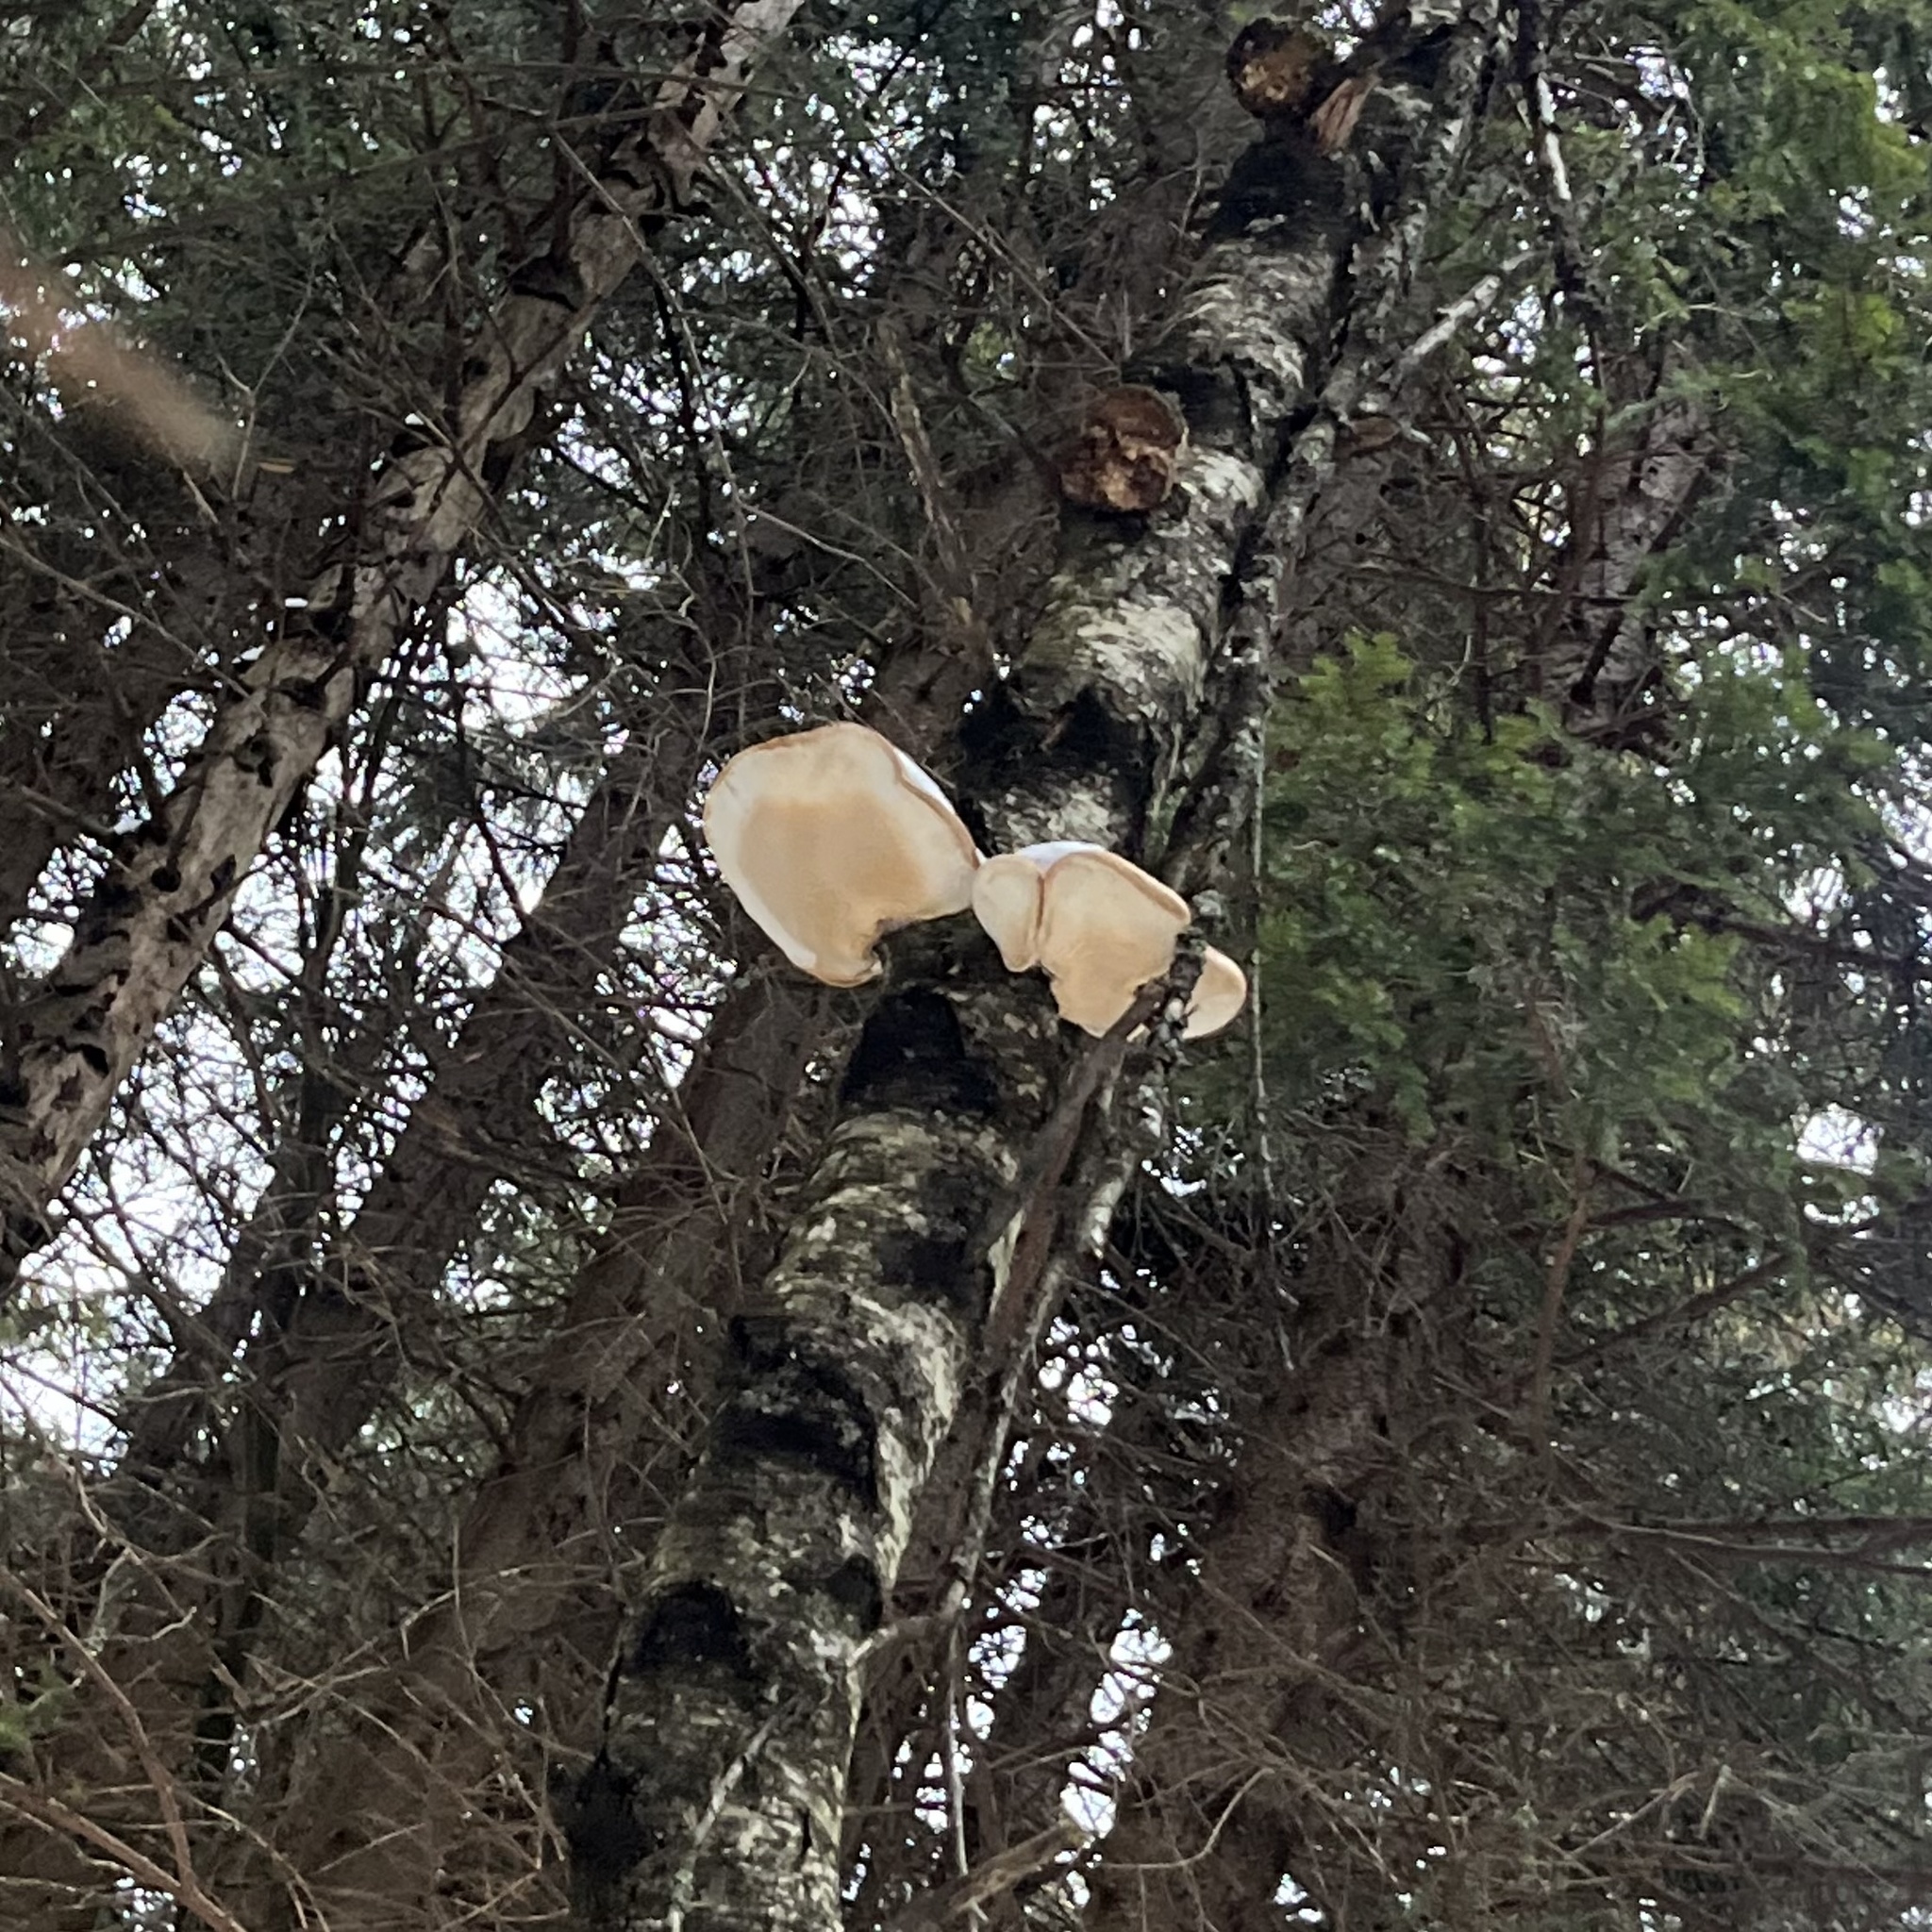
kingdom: Fungi
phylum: Basidiomycota
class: Agaricomycetes
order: Polyporales
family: Fomitopsidaceae
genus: Fomitopsis
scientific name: Fomitopsis betulina
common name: Birch polypore
